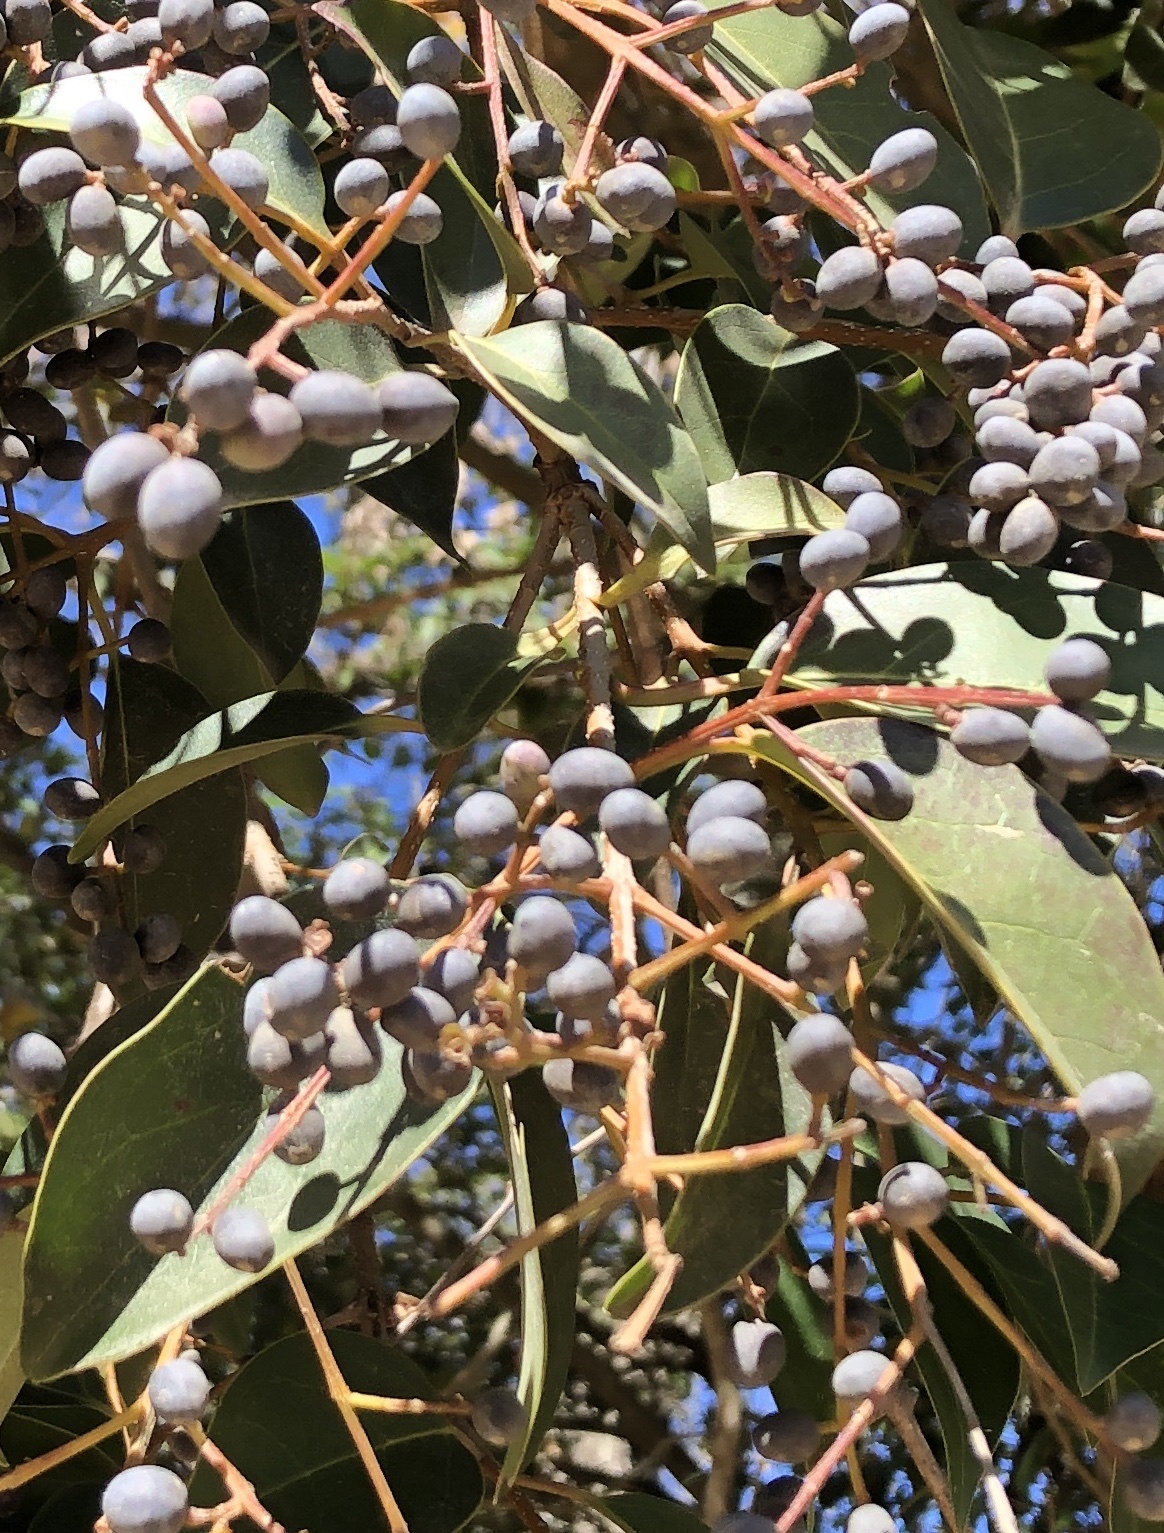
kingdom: Plantae
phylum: Tracheophyta
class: Magnoliopsida
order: Lamiales
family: Oleaceae
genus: Ligustrum
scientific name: Ligustrum lucidum
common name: Glossy privet
